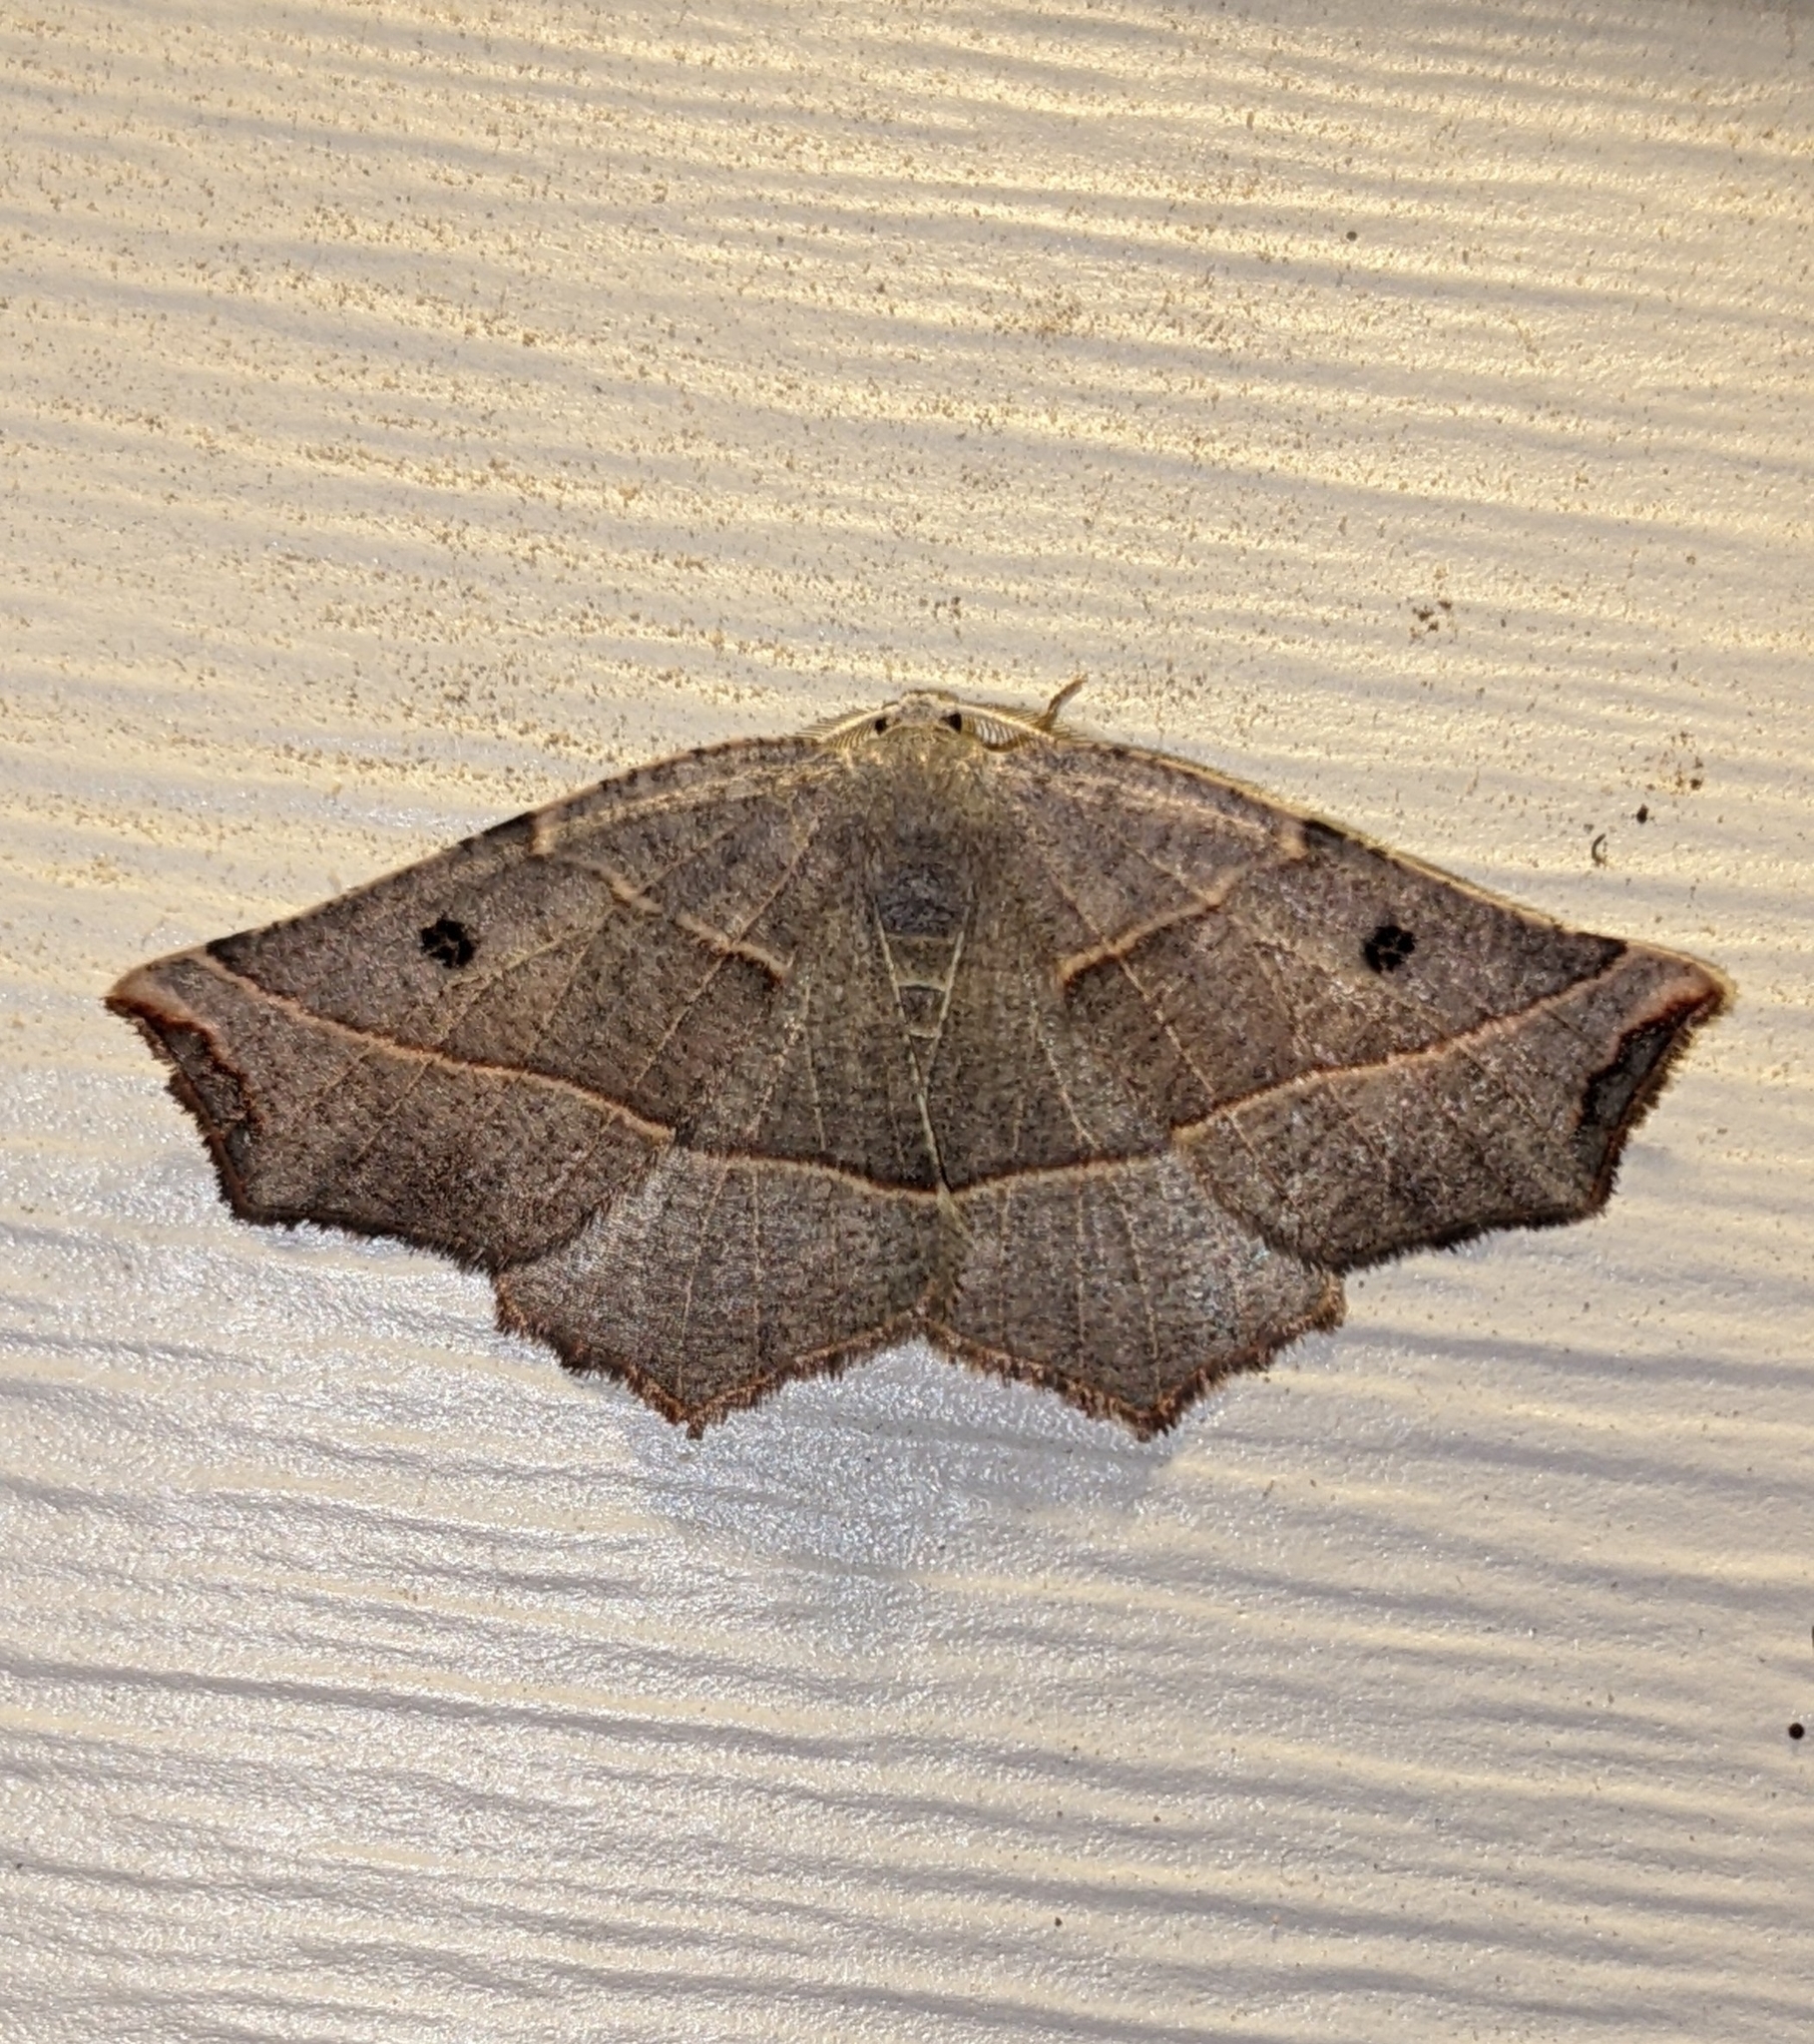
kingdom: Animalia
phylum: Arthropoda
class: Insecta
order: Lepidoptera
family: Geometridae
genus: Metanema
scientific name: Metanema inatomaria
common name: Pale metanema
